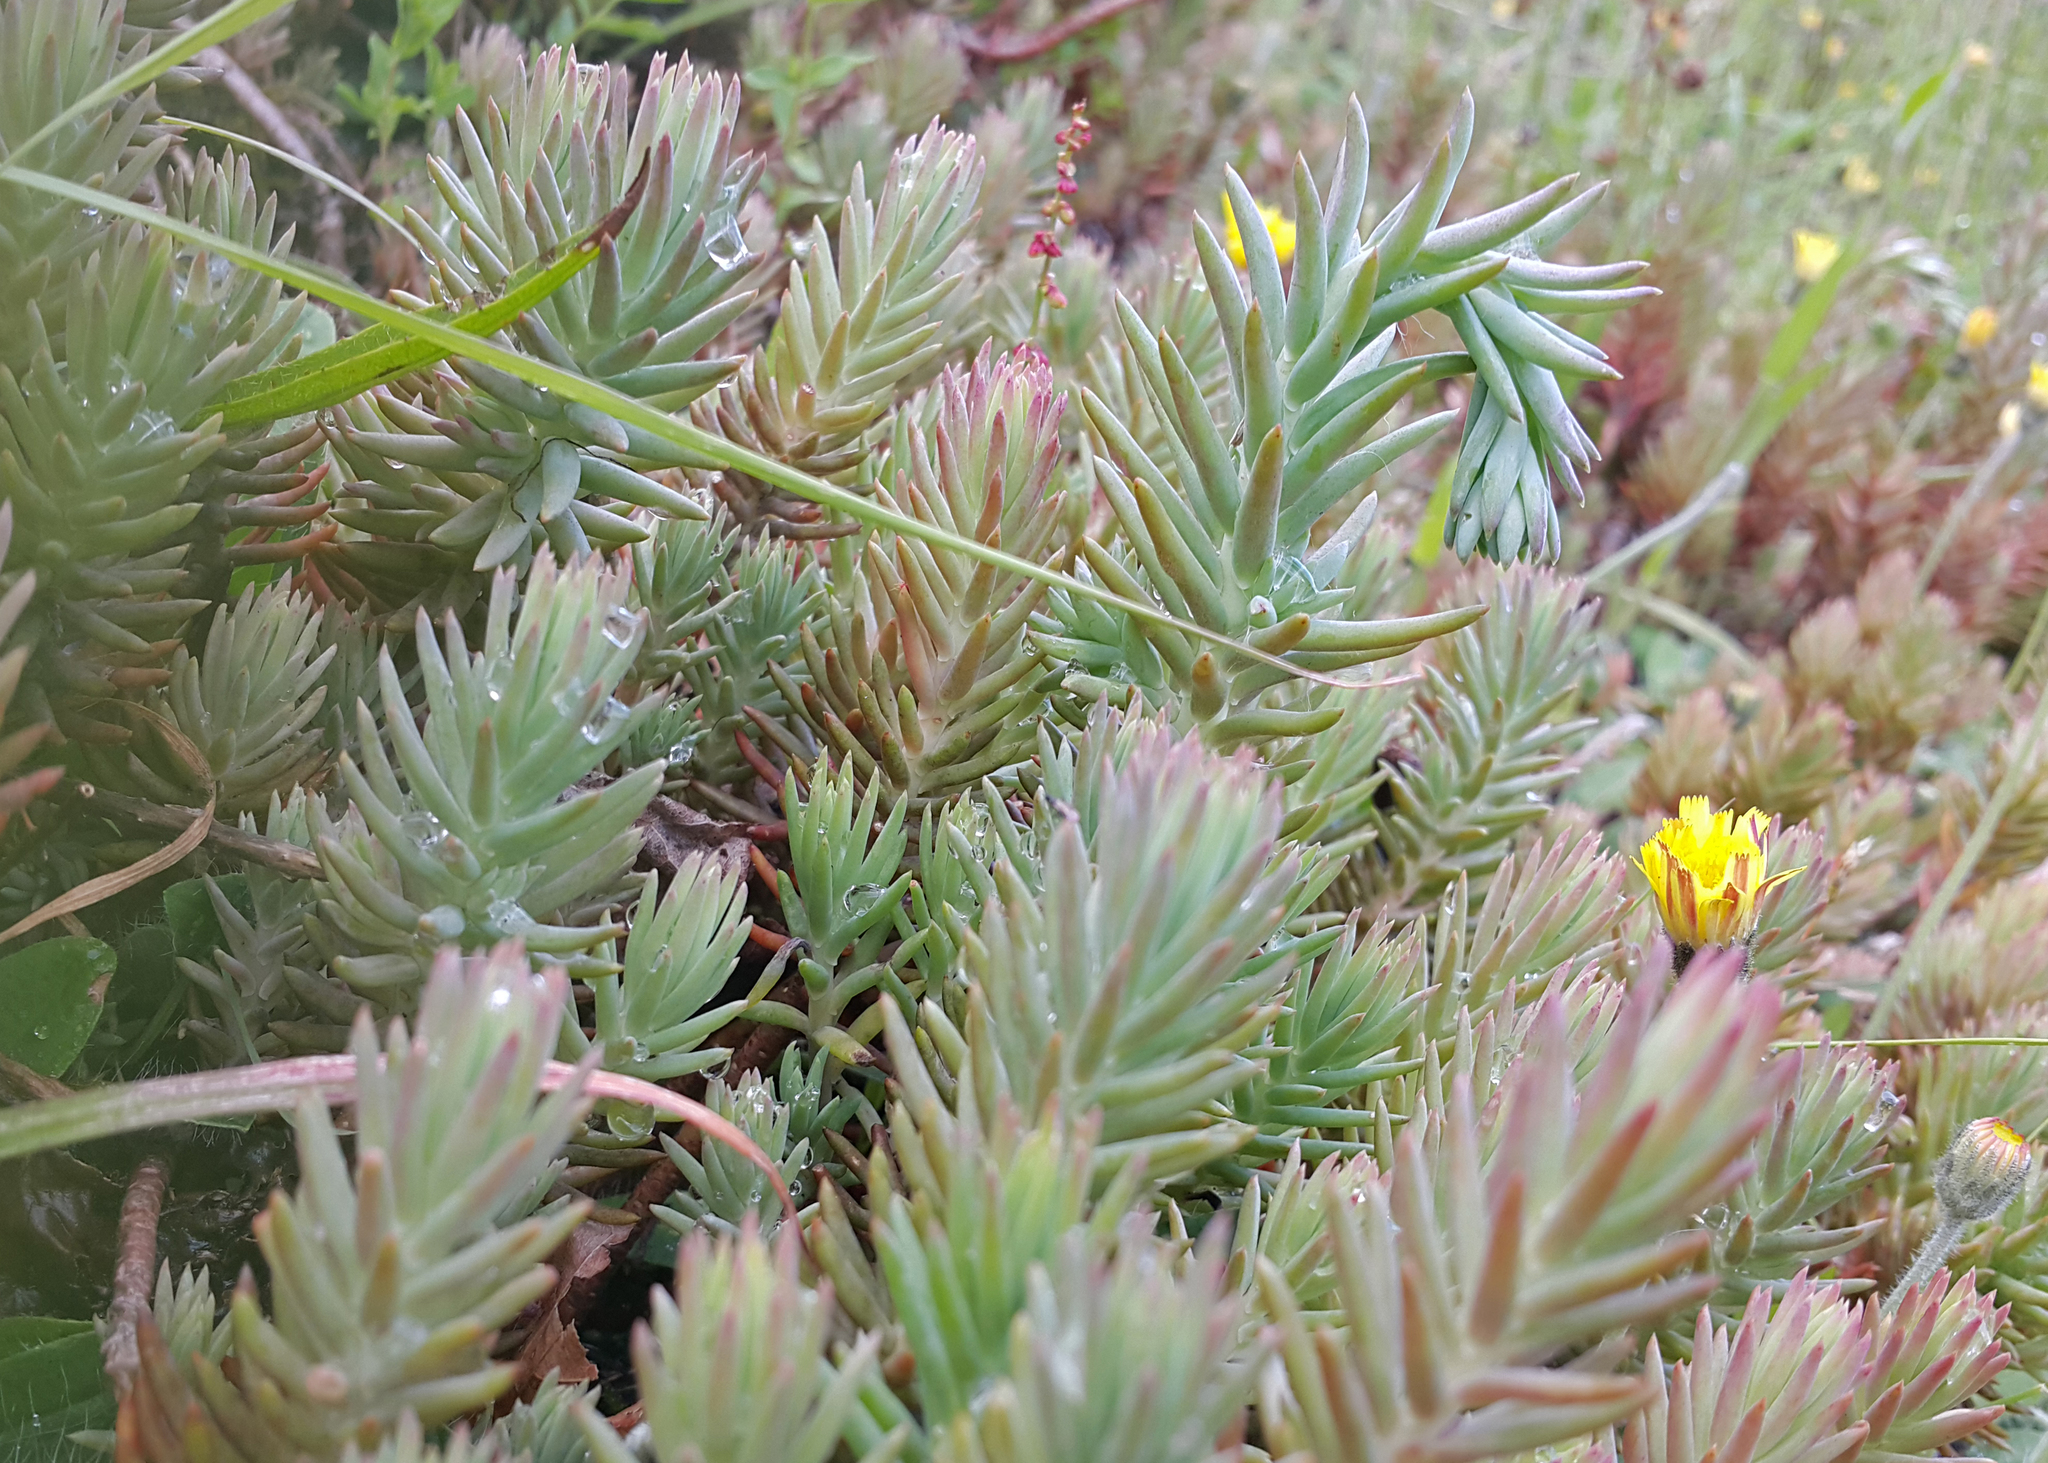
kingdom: Plantae
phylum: Tracheophyta
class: Magnoliopsida
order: Saxifragales
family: Crassulaceae
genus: Petrosedum
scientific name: Petrosedum rupestre
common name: Jenny's stonecrop
